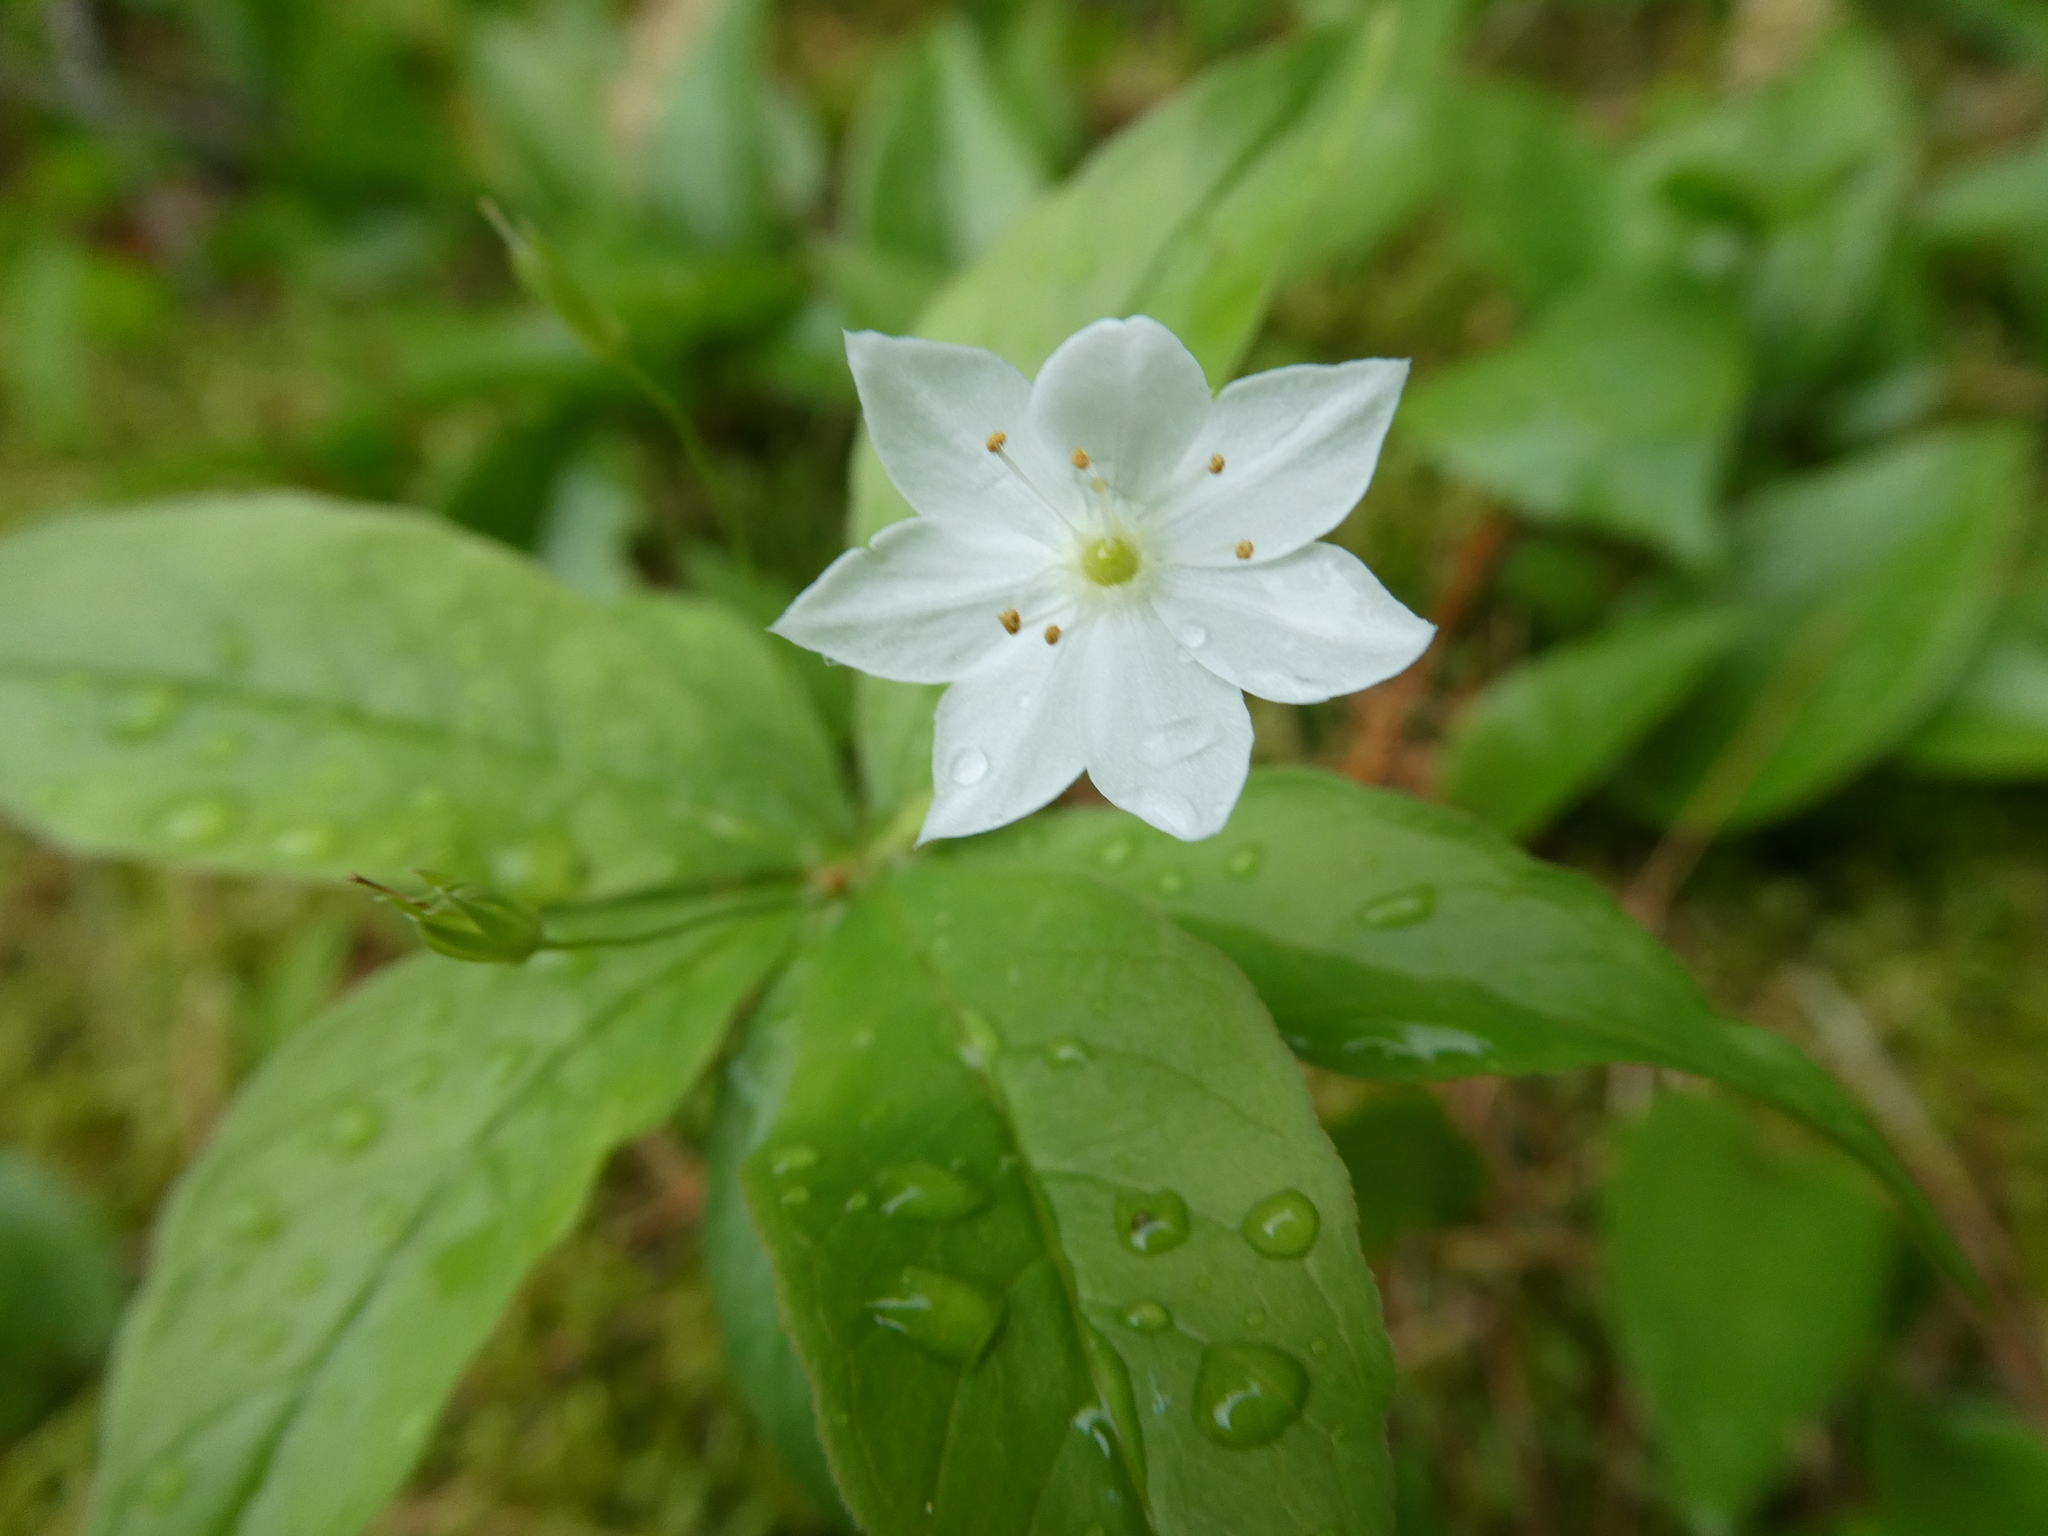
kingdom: Plantae
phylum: Tracheophyta
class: Magnoliopsida
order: Ericales
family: Primulaceae
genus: Lysimachia
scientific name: Lysimachia borealis
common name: American starflower
